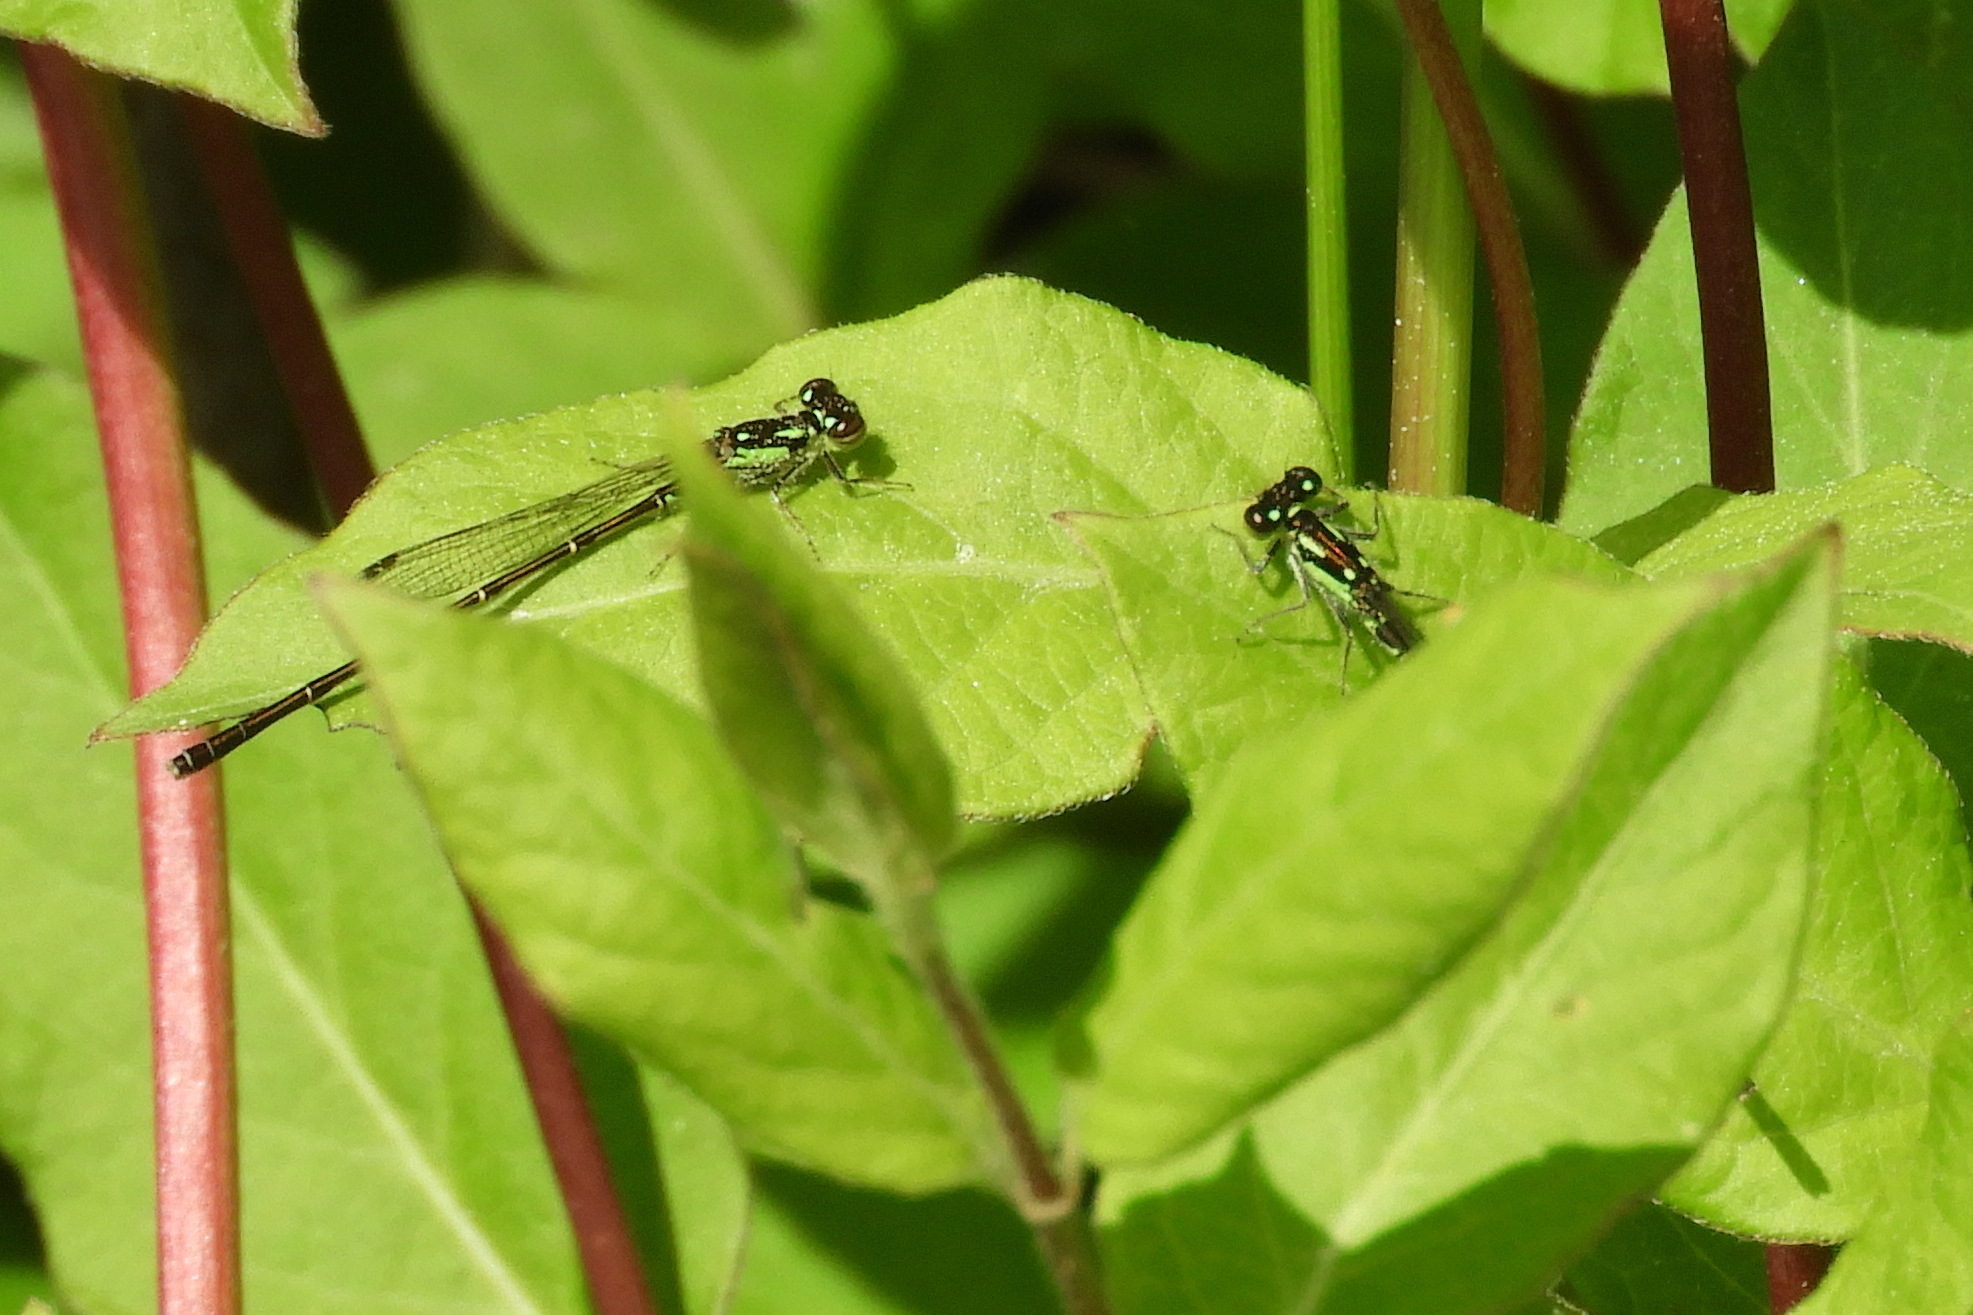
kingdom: Animalia
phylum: Arthropoda
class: Insecta
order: Odonata
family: Coenagrionidae
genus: Ischnura
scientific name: Ischnura posita
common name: Fragile forktail
